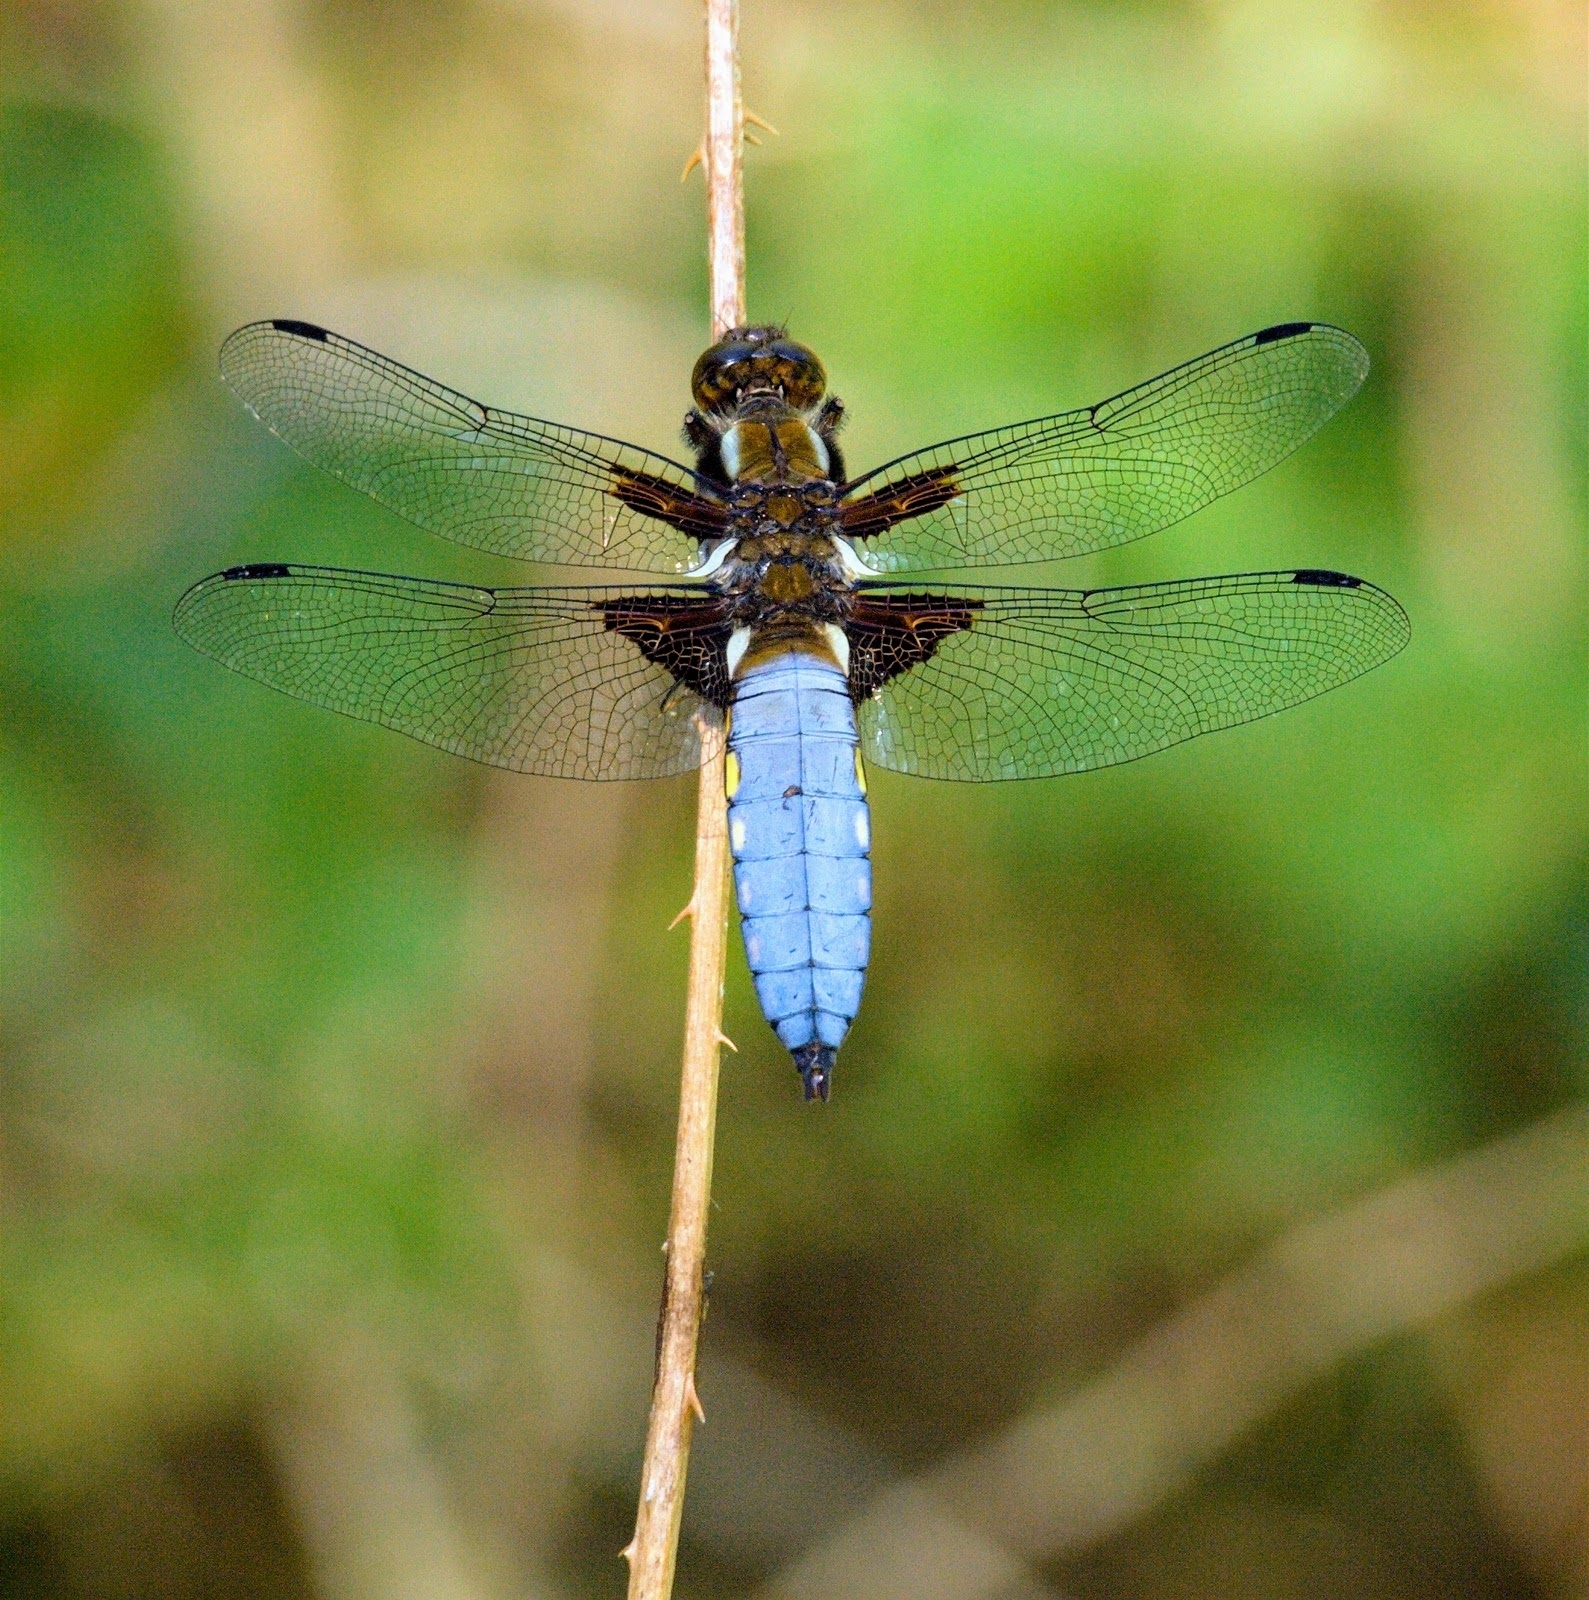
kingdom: Animalia
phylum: Arthropoda
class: Insecta
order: Odonata
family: Libellulidae
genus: Libellula
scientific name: Libellula depressa
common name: Broad-bodied chaser
